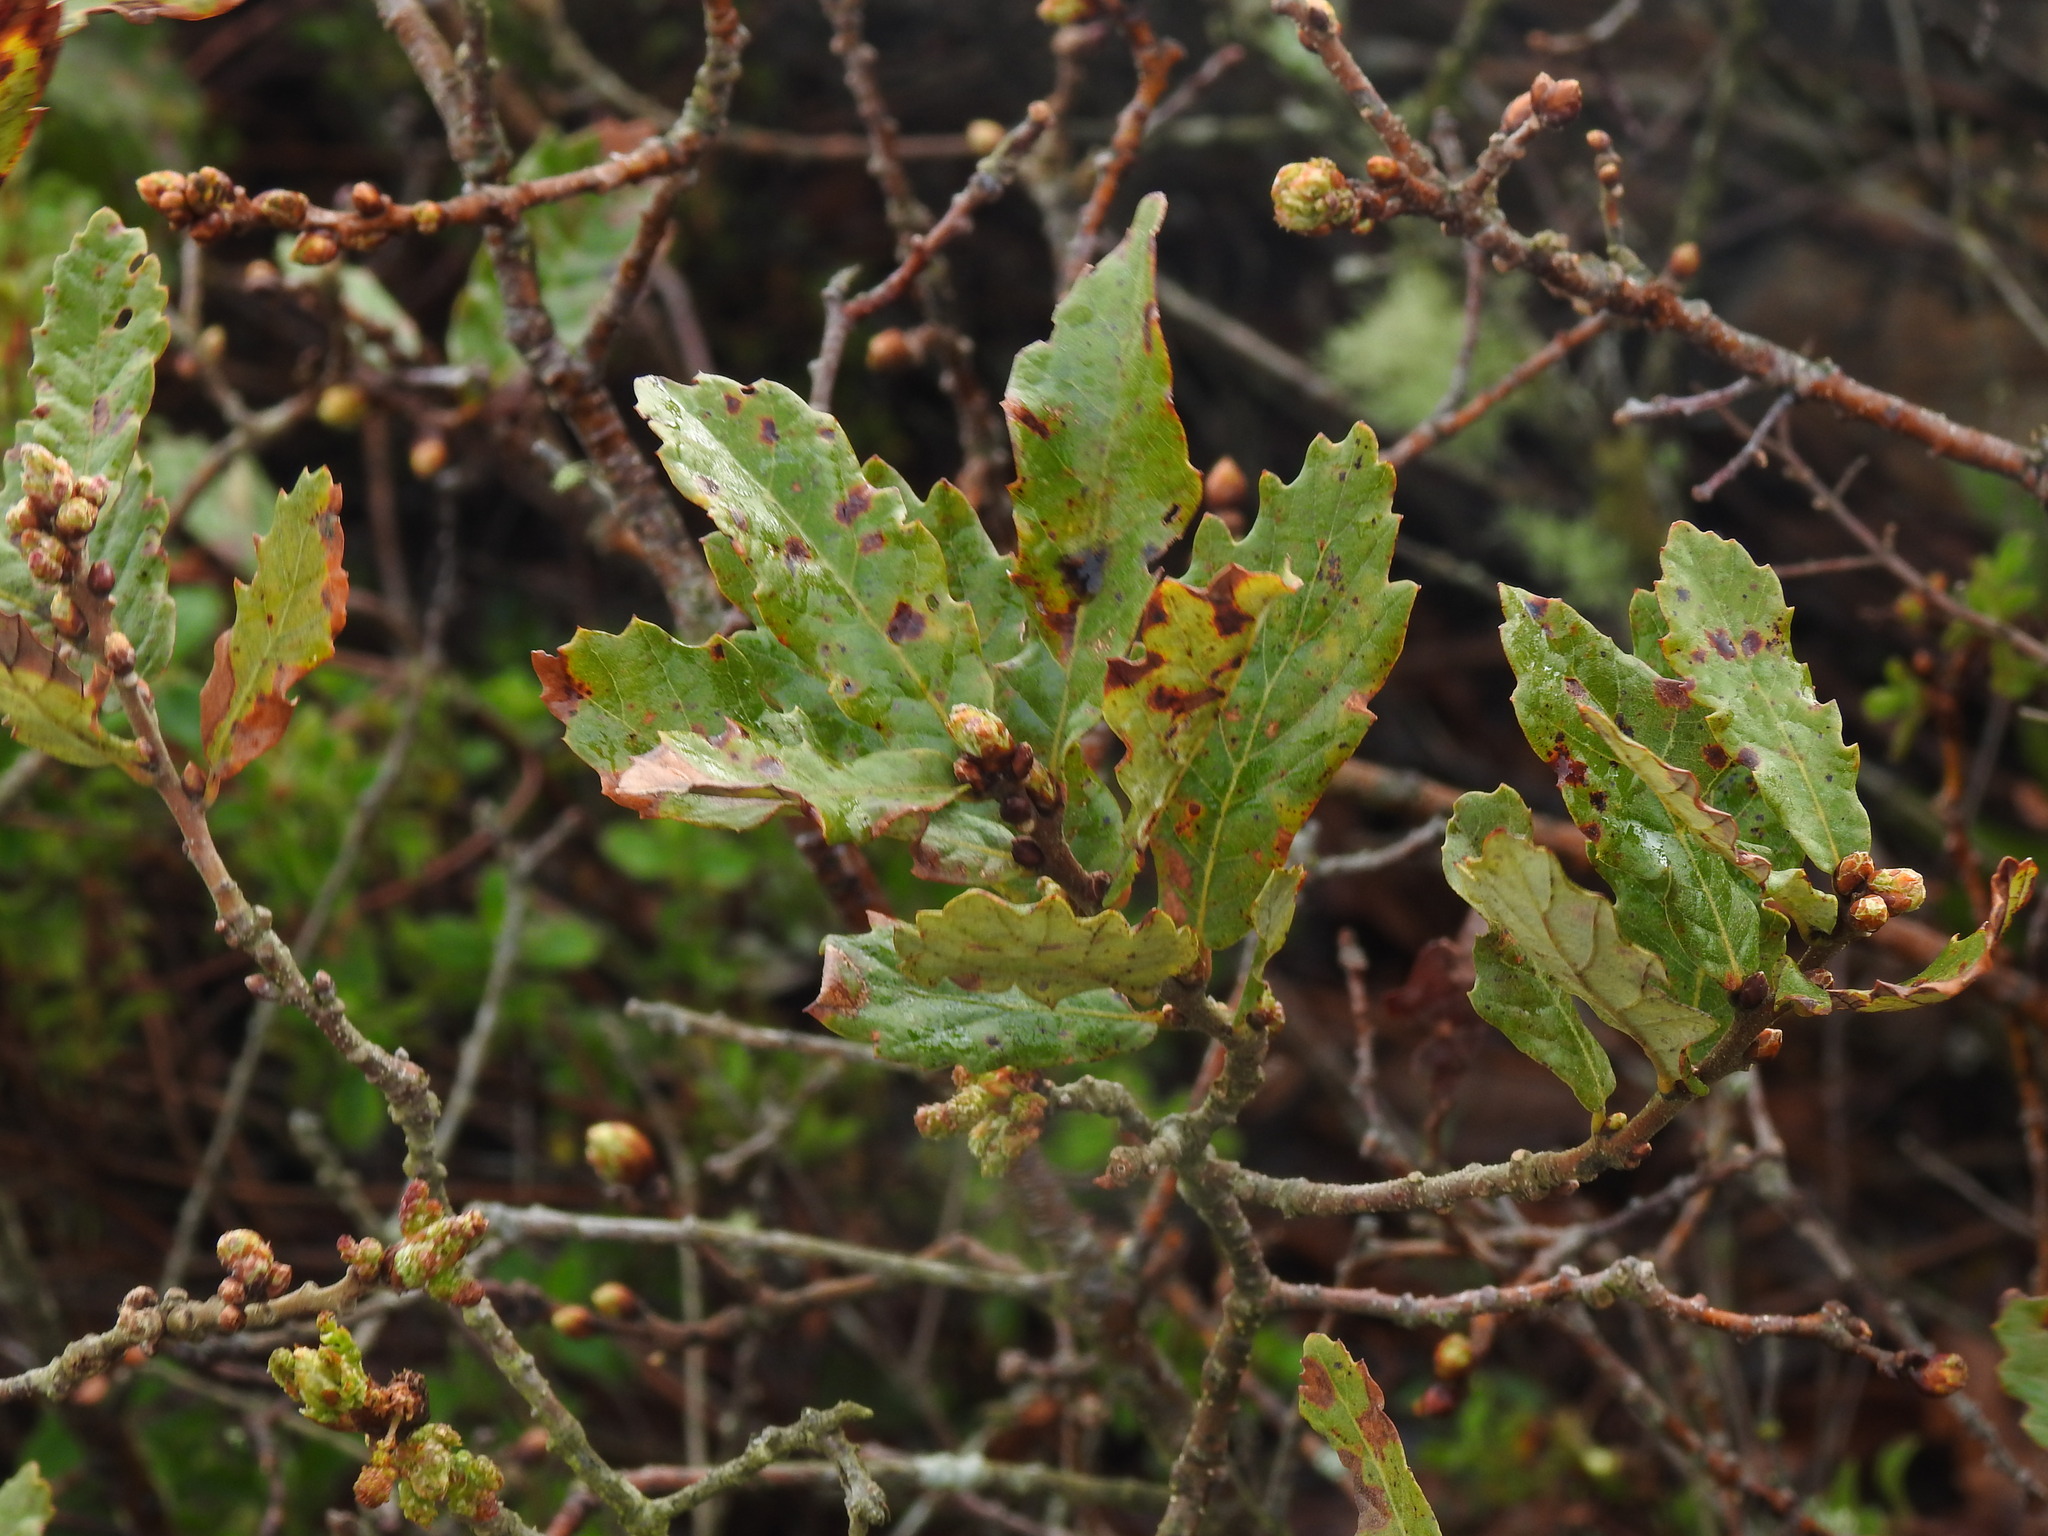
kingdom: Plantae
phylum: Tracheophyta
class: Magnoliopsida
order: Fagales
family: Fagaceae
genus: Quercus
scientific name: Quercus lusitanica
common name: Scrub gall oak
